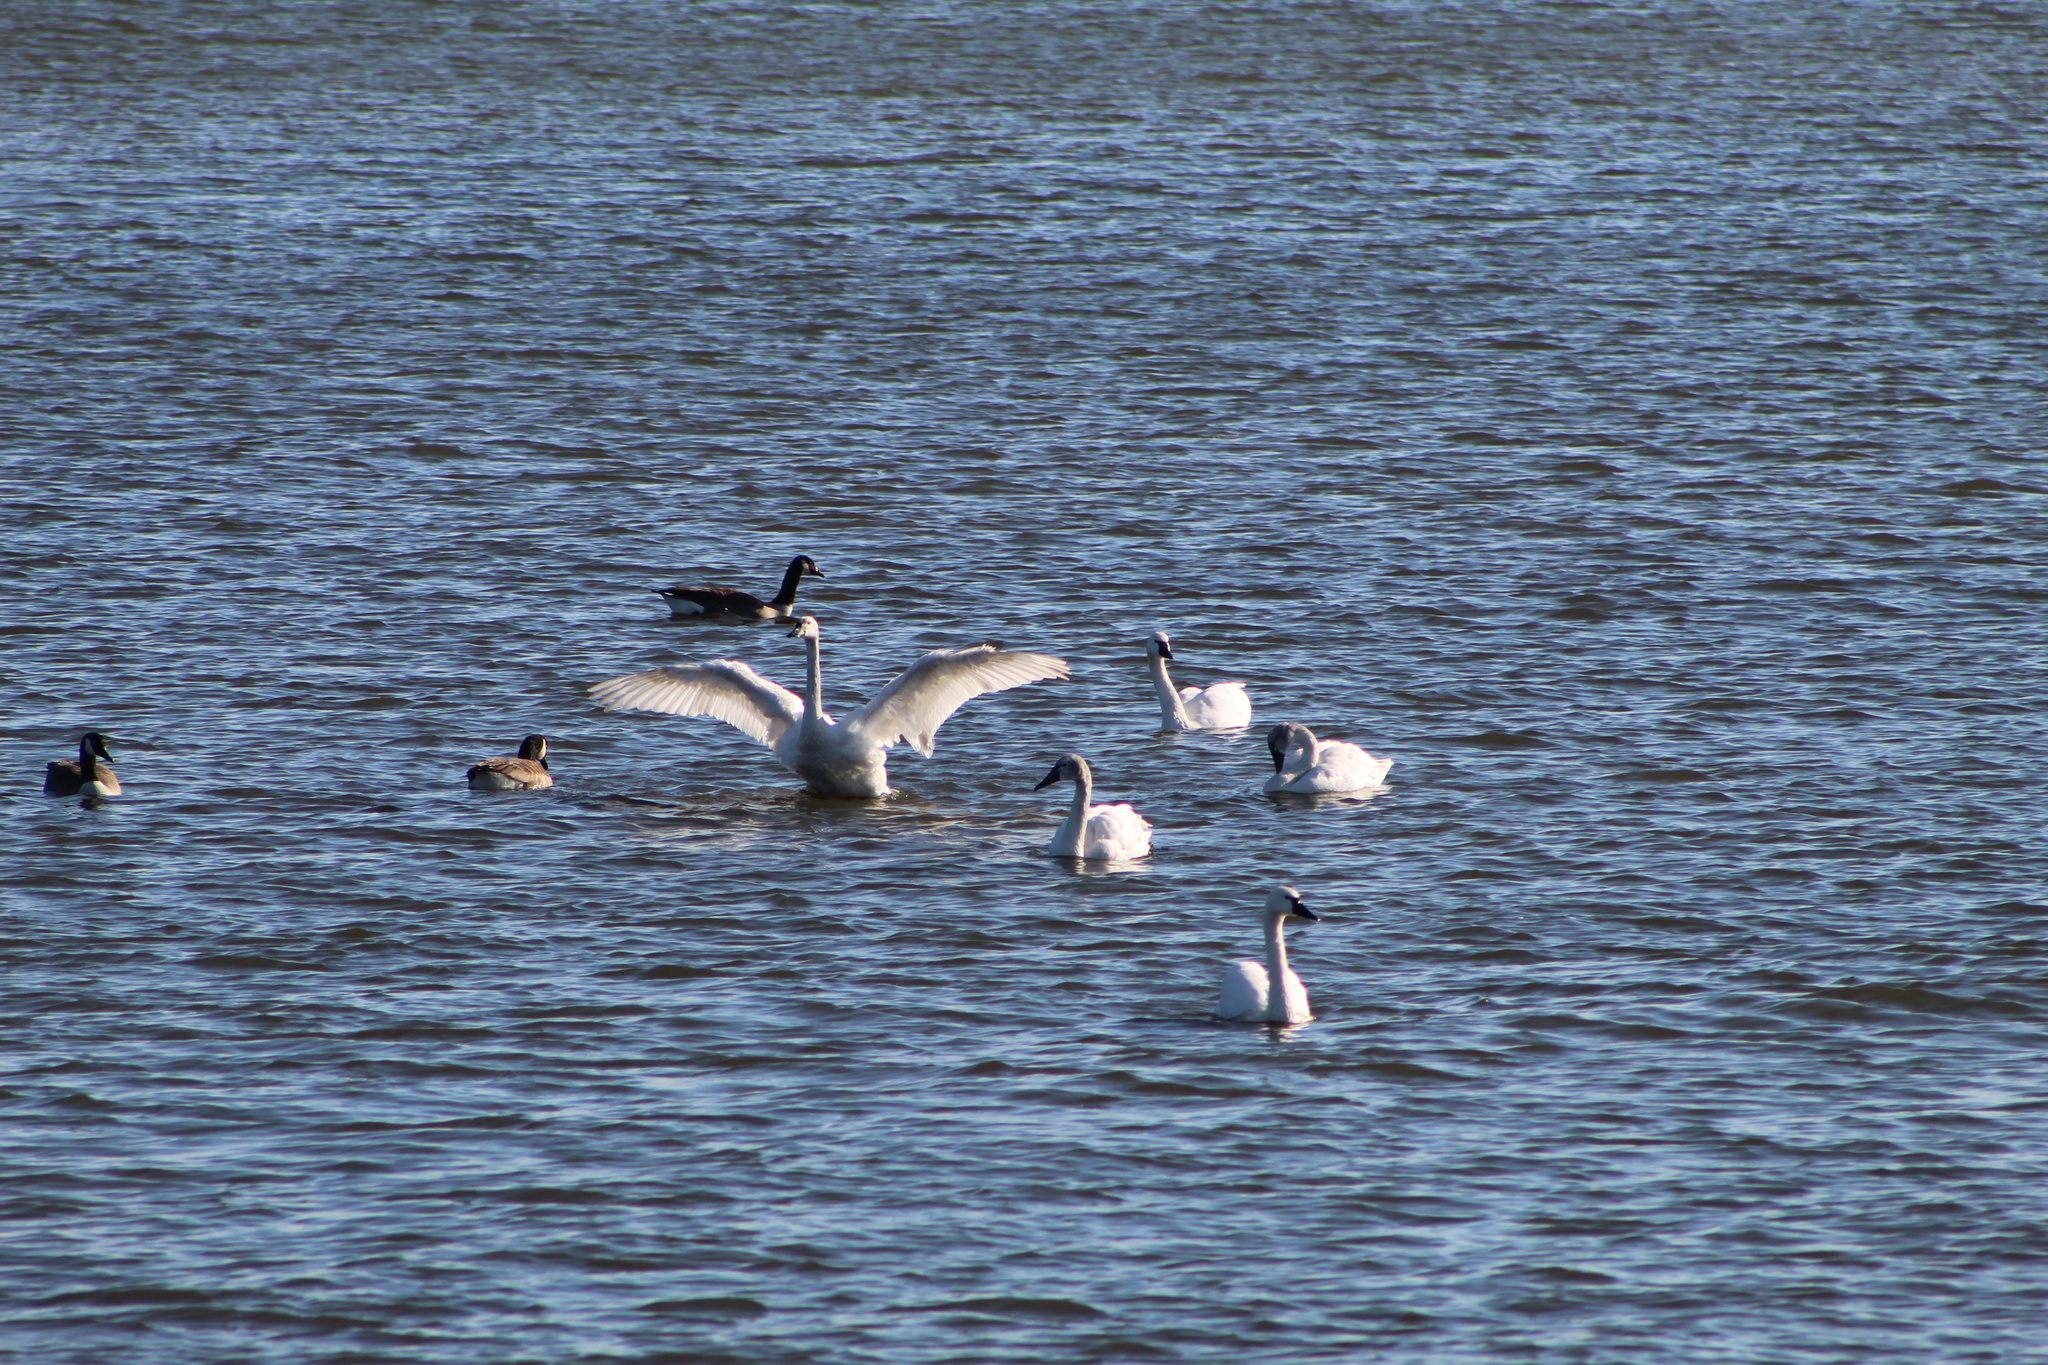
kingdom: Animalia
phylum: Chordata
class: Aves
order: Anseriformes
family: Anatidae
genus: Cygnus
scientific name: Cygnus columbianus
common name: Tundra swan
